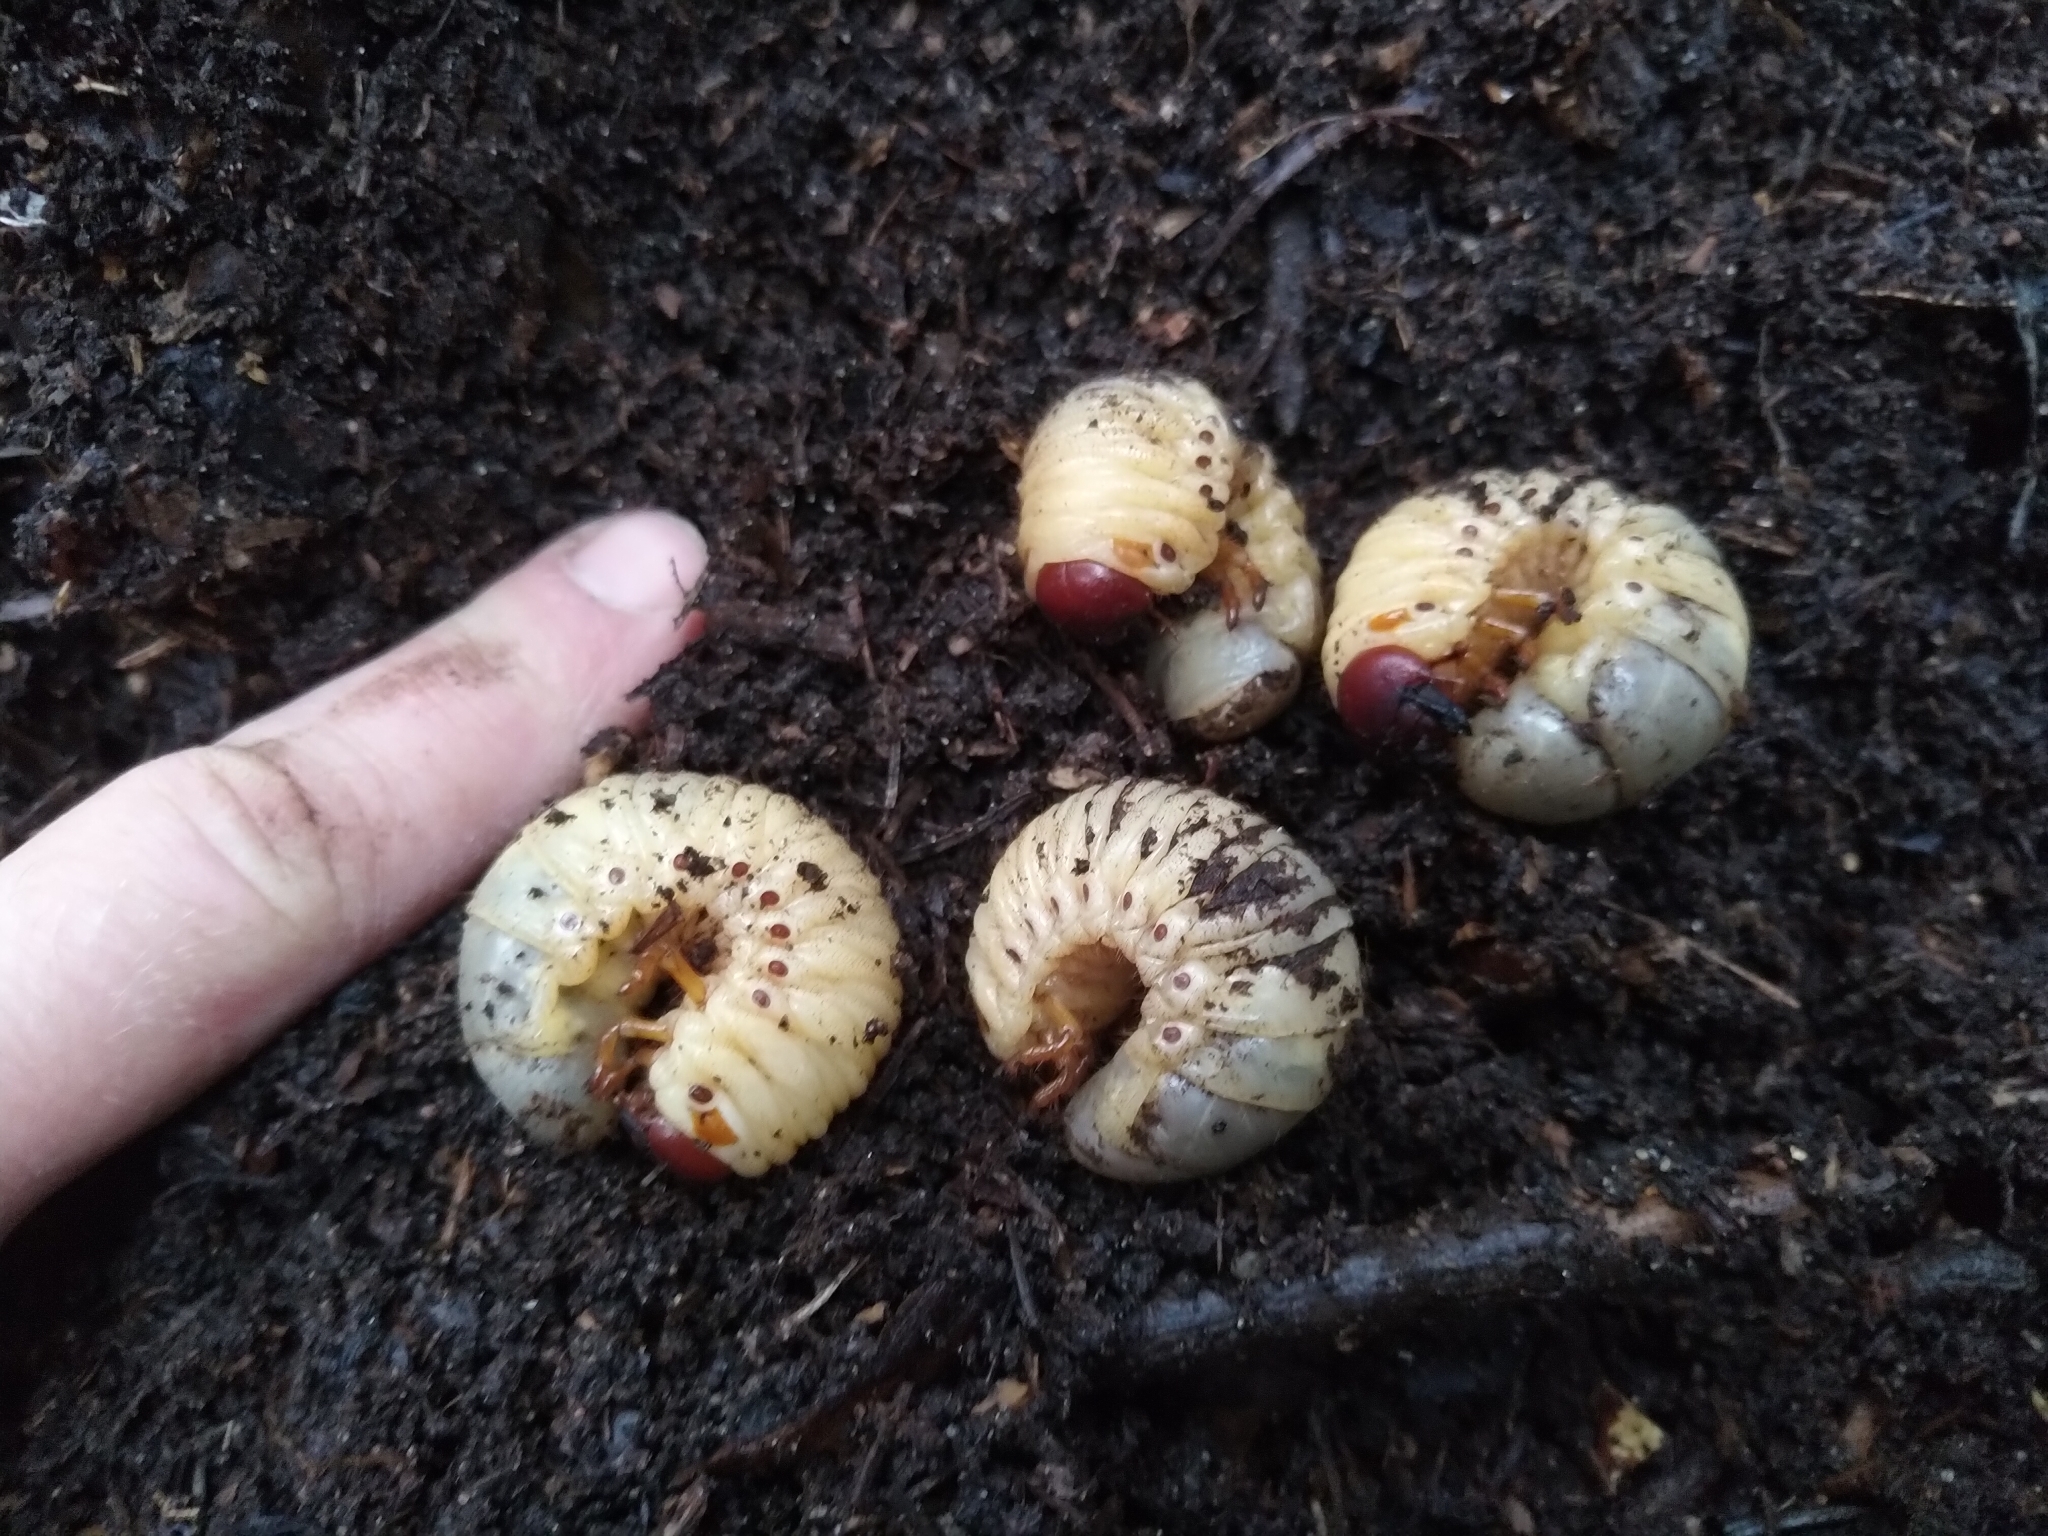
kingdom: Animalia
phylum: Arthropoda
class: Insecta
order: Coleoptera
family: Scarabaeidae
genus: Oryctes
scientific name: Oryctes nasicornis
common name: European rhinoceros beetle
